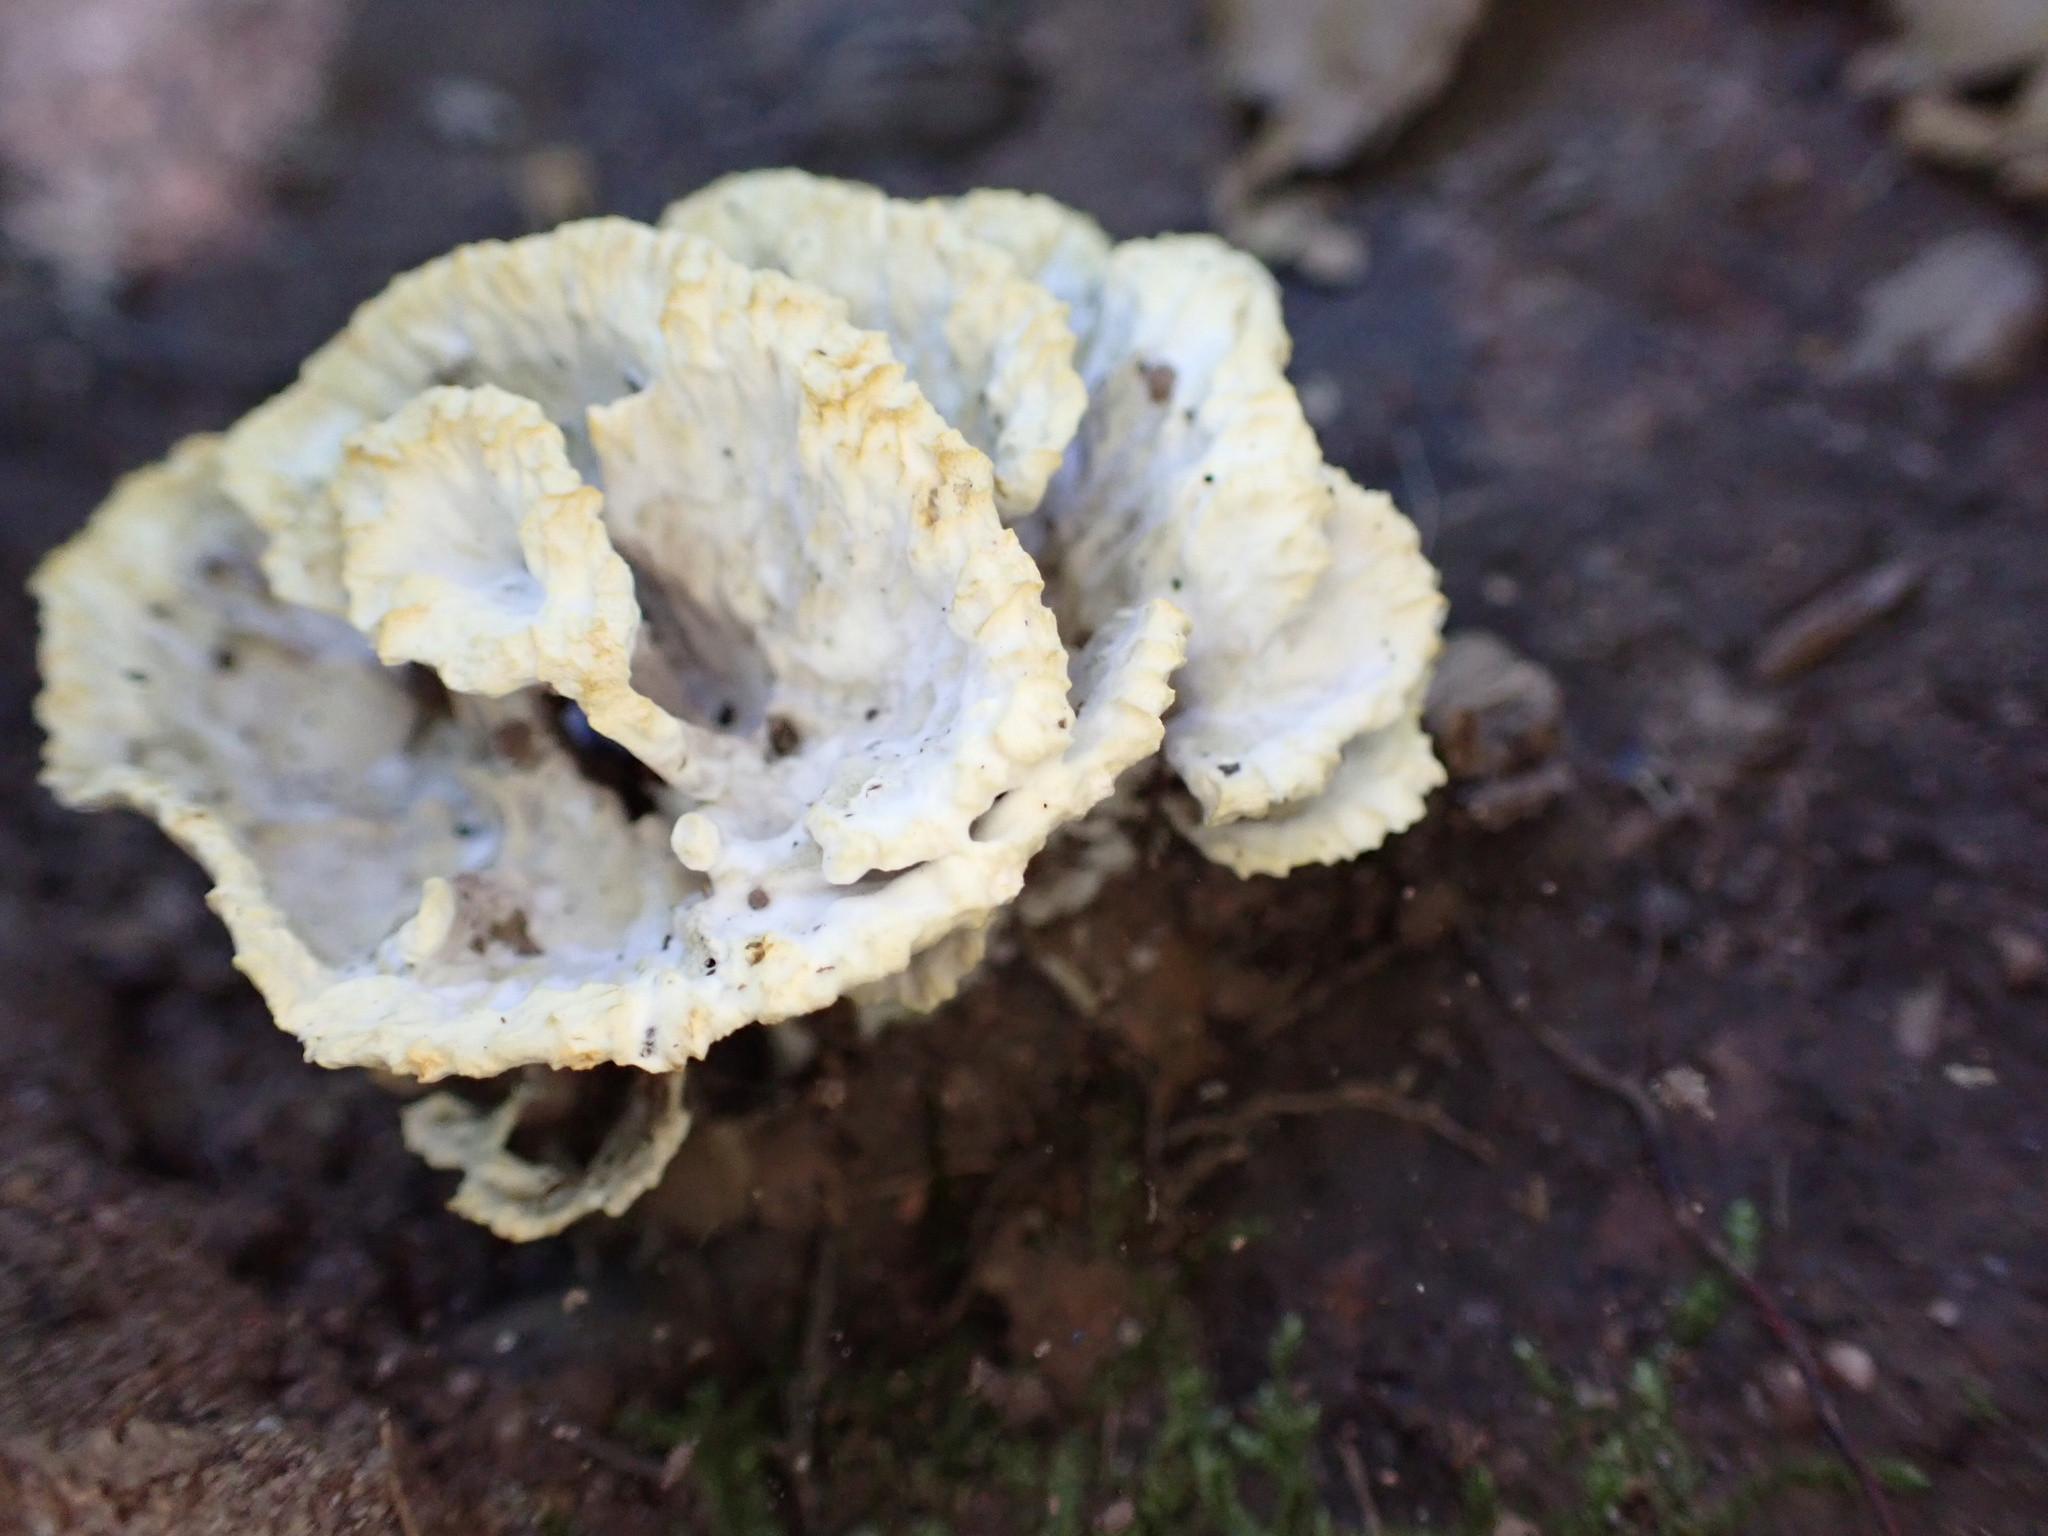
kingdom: Fungi
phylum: Basidiomycota
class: Agaricomycetes
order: Thelephorales
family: Thelephoraceae
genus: Thelephora
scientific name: Thelephora vialis
